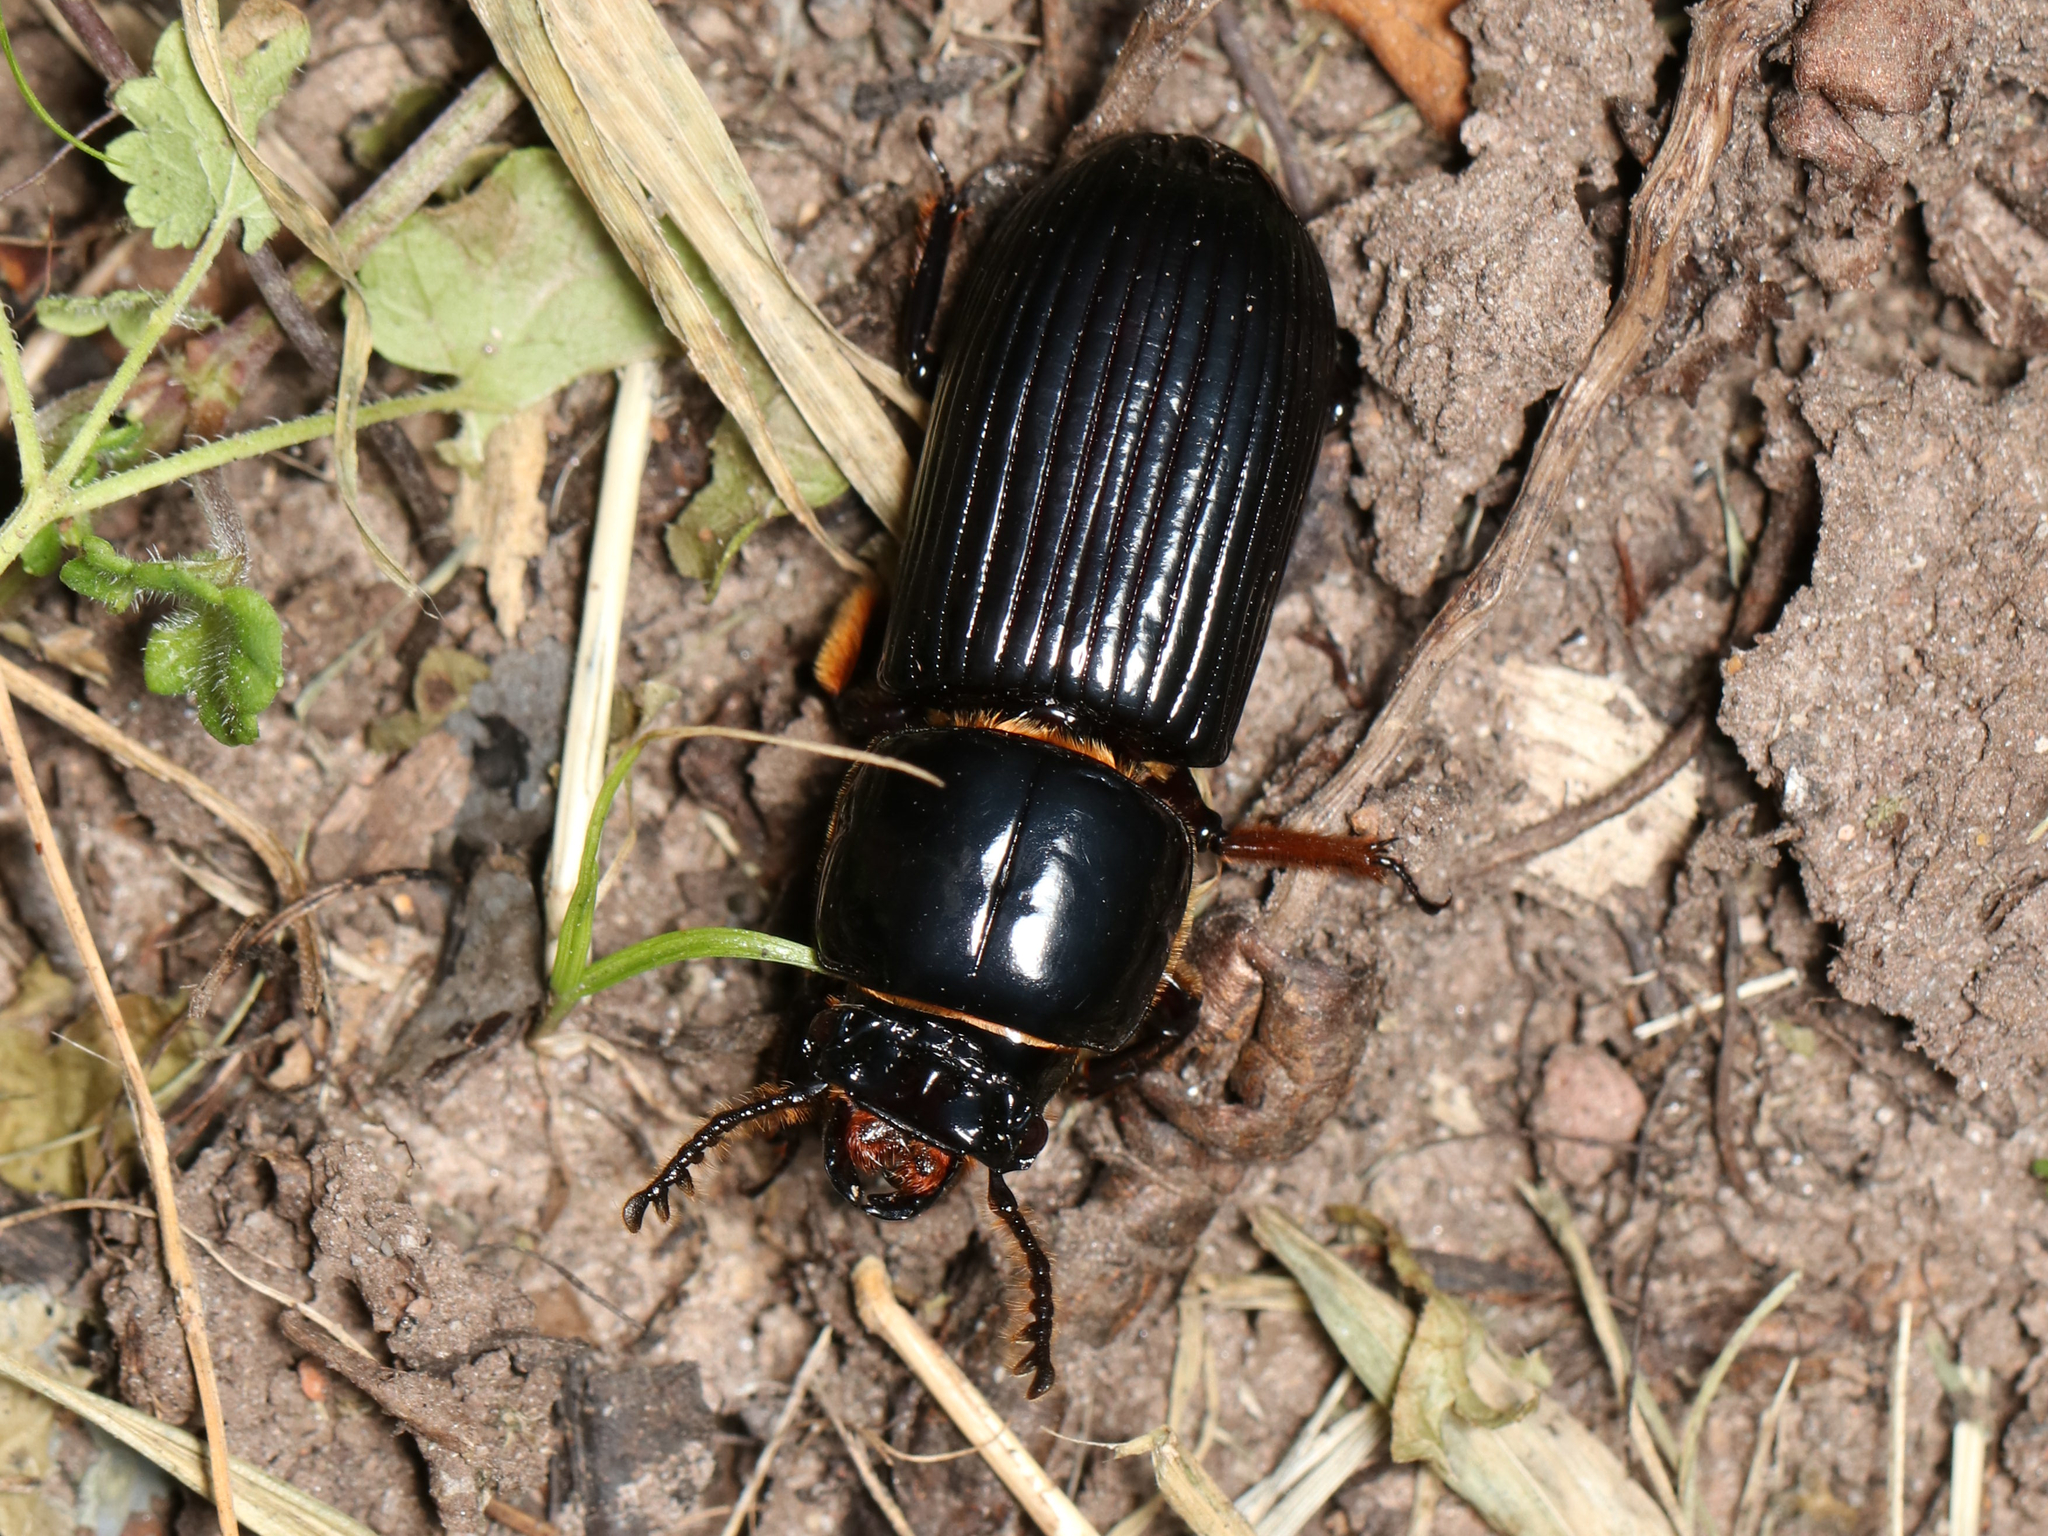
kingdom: Animalia
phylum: Arthropoda
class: Insecta
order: Coleoptera
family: Passalidae
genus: Odontotaenius
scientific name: Odontotaenius disjunctus
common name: Patent leather beetle
